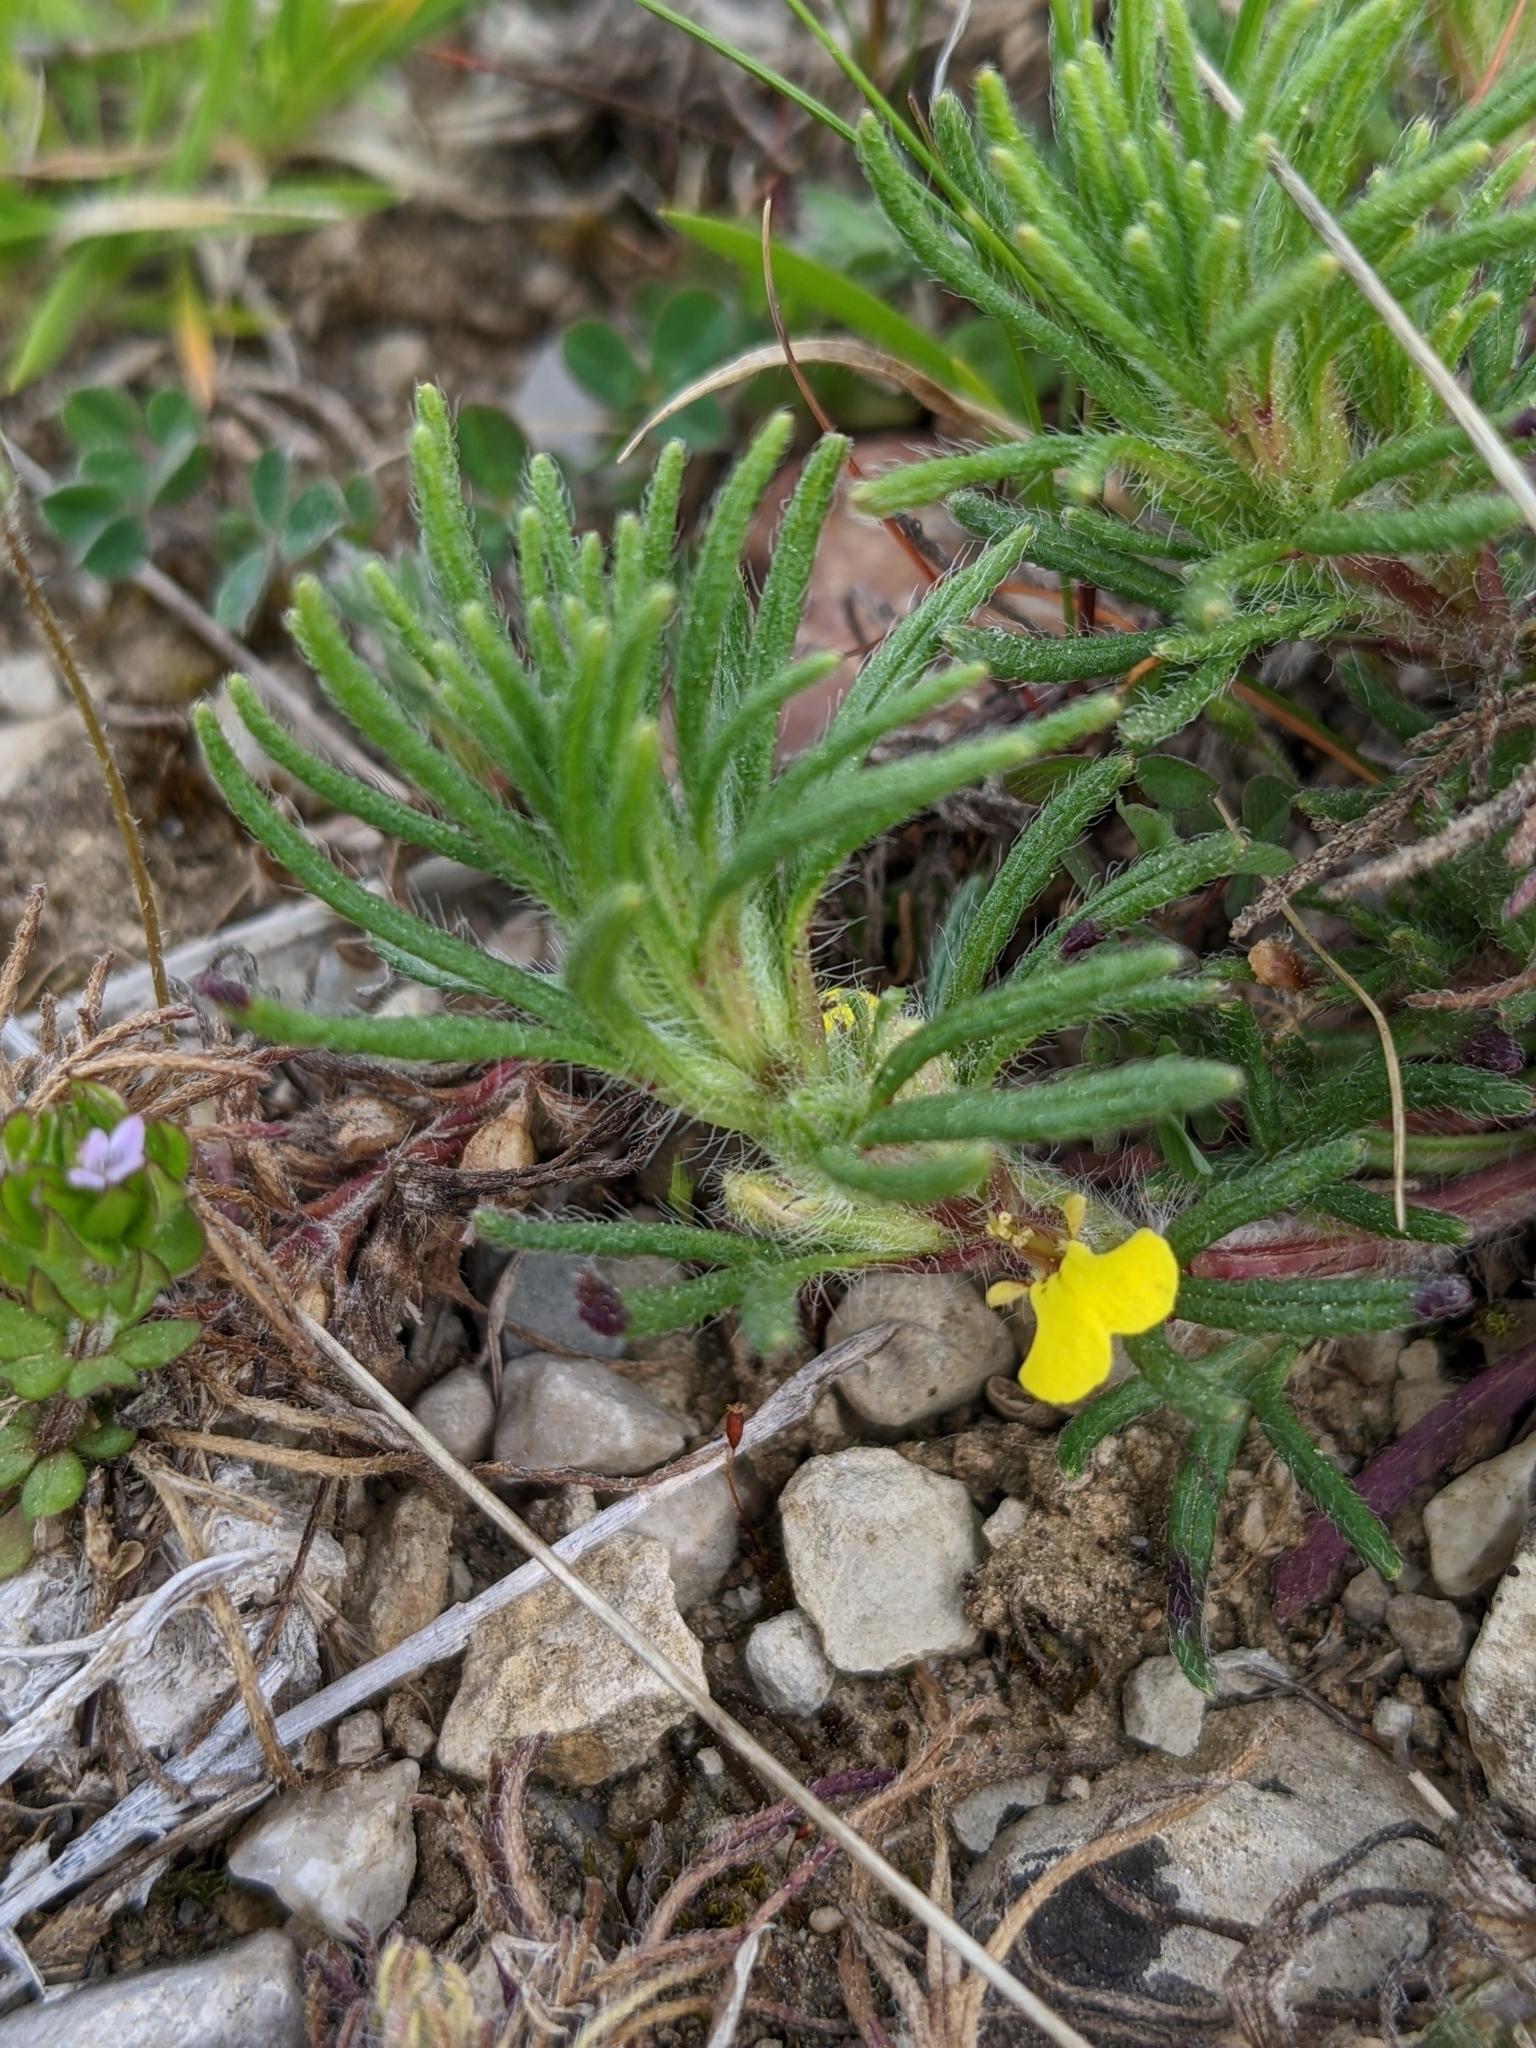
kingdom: Plantae
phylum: Tracheophyta
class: Magnoliopsida
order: Lamiales
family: Lamiaceae
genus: Ajuga
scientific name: Ajuga chamaepitys
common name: Ground-pine
